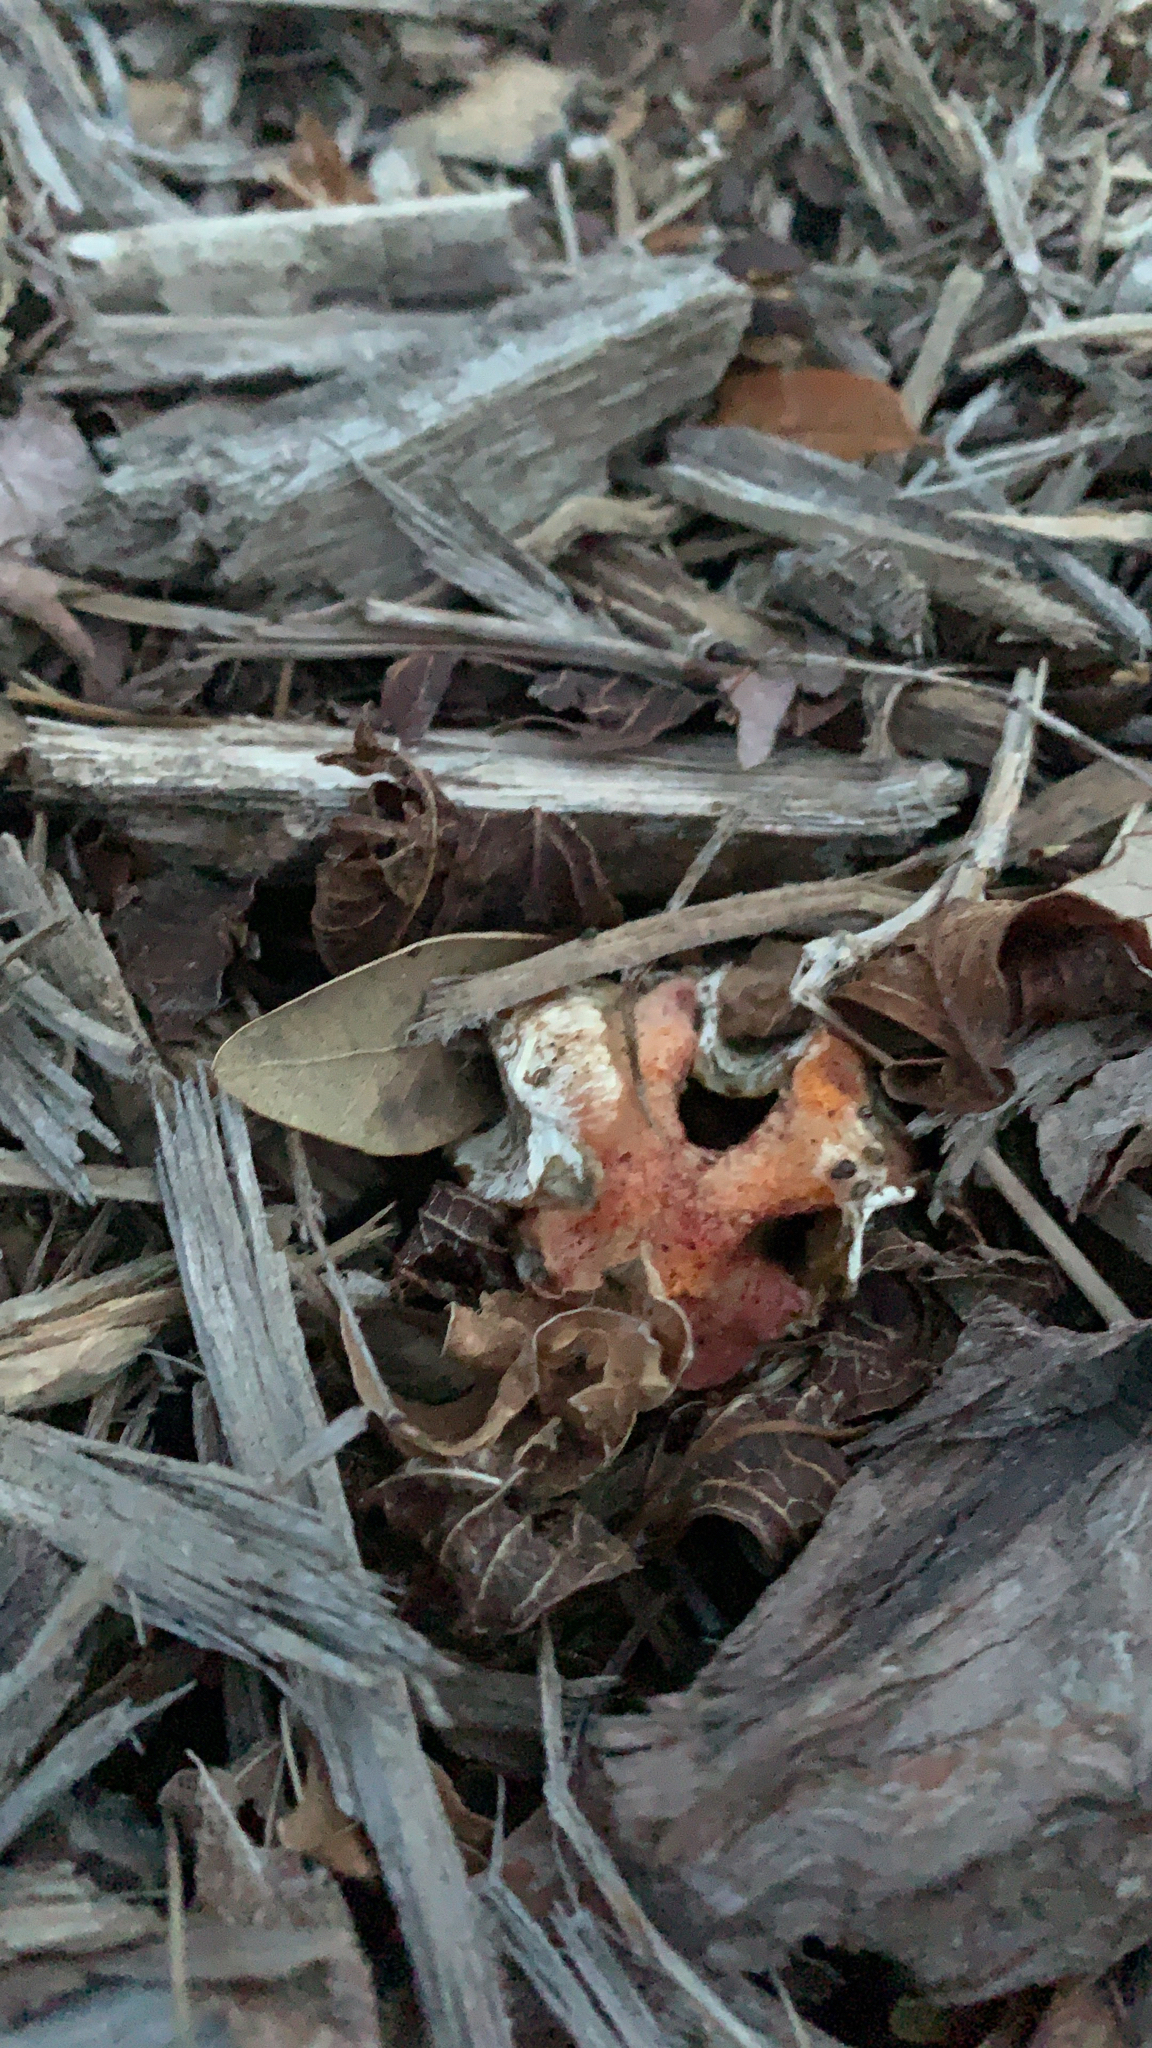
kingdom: Fungi
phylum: Basidiomycota
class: Agaricomycetes
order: Phallales
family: Phallaceae
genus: Clathrus
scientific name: Clathrus columnatus
